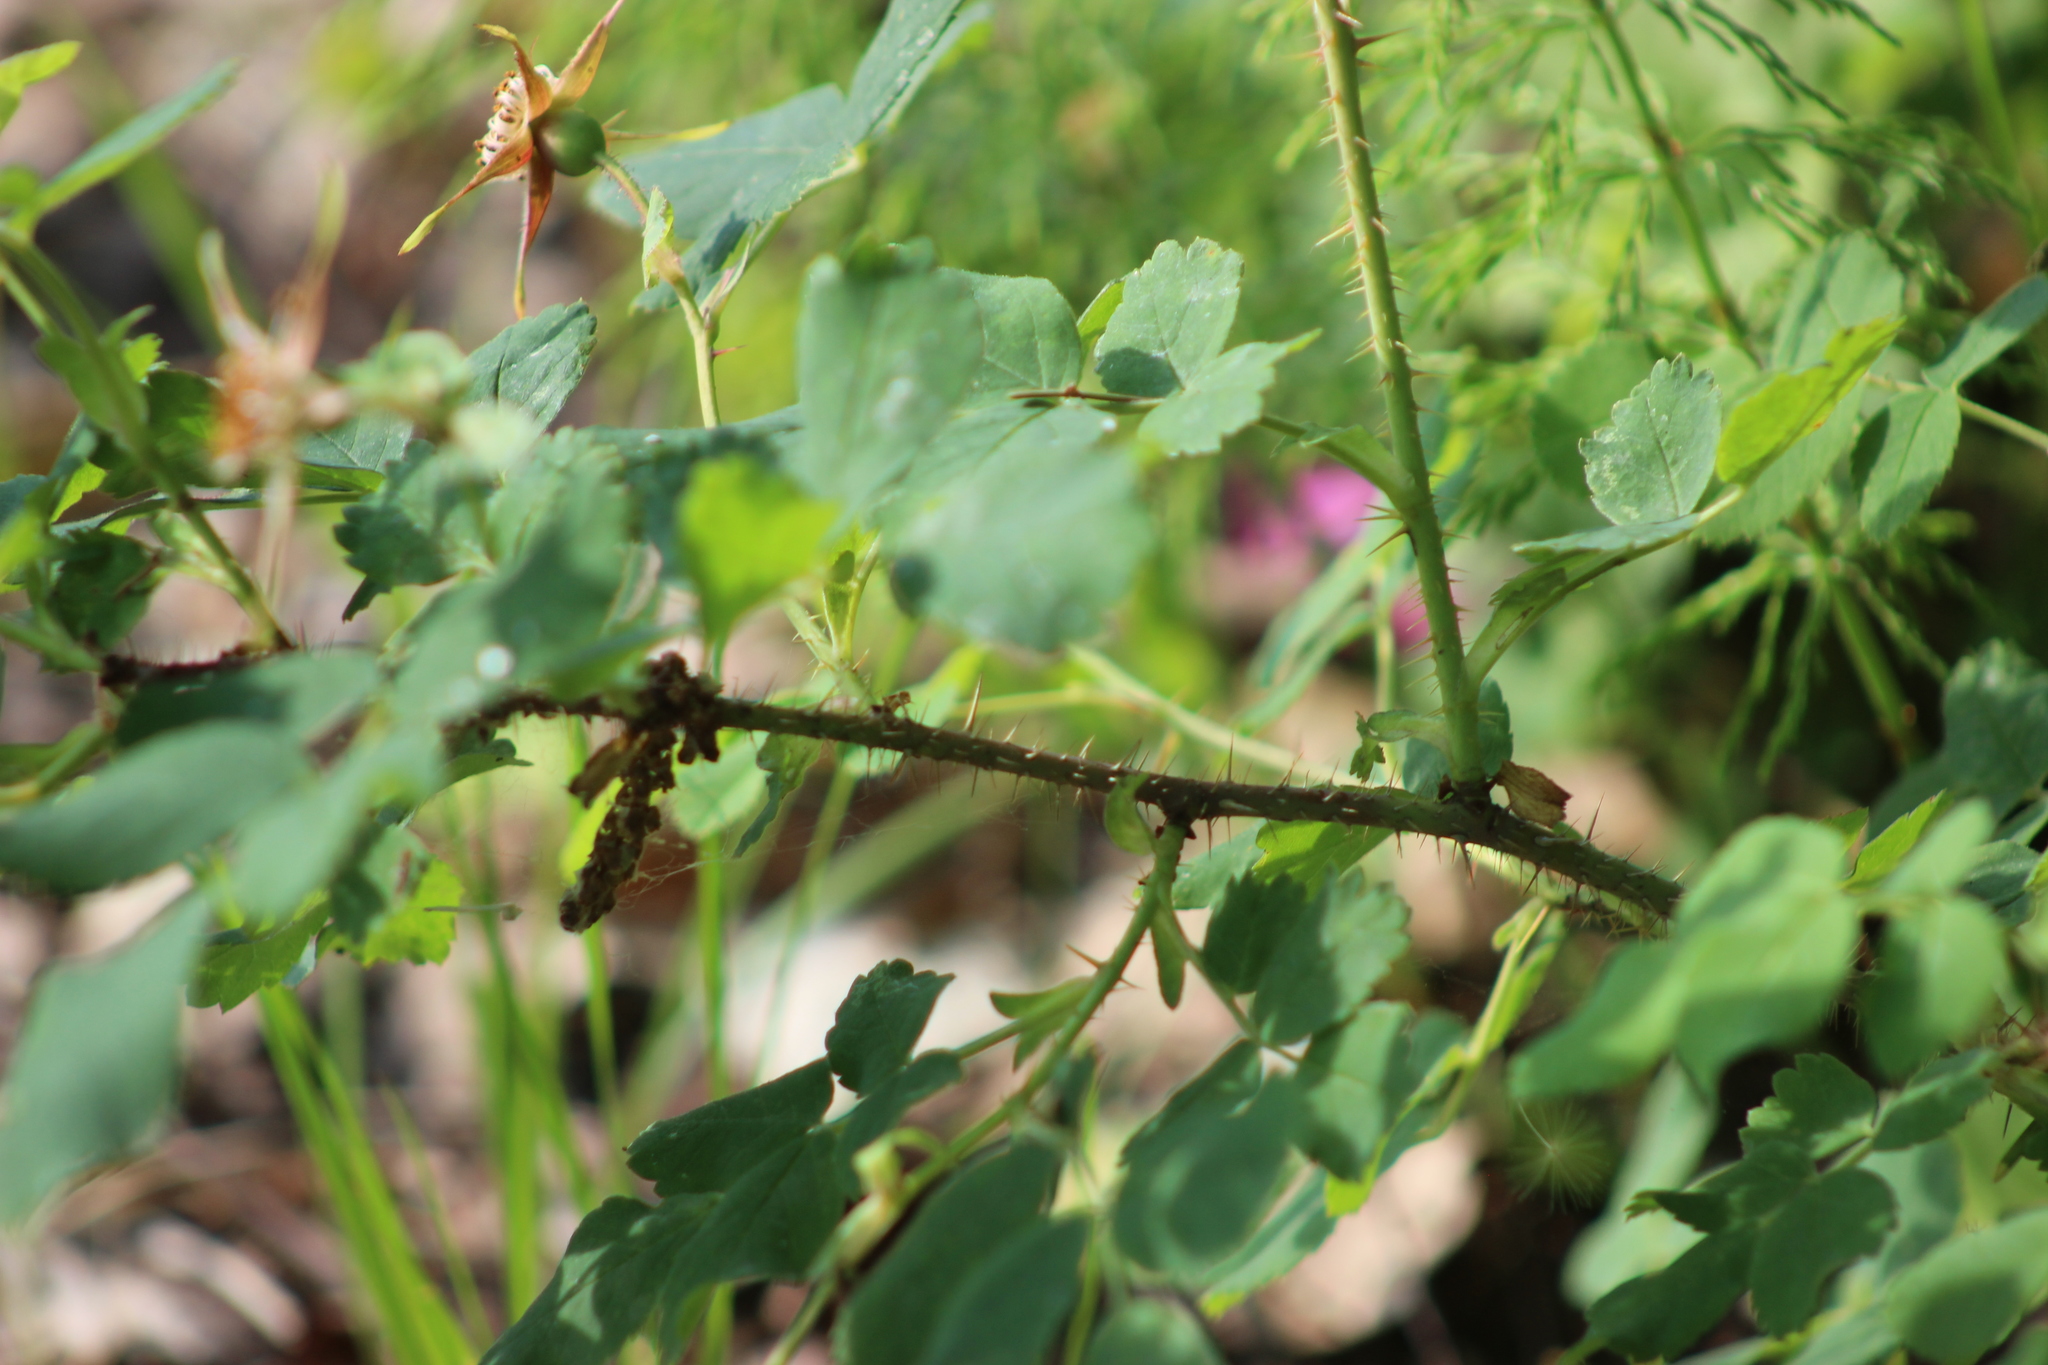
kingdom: Plantae
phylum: Tracheophyta
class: Magnoliopsida
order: Rosales
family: Rosaceae
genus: Rosa
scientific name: Rosa acicularis
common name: Prickly rose
